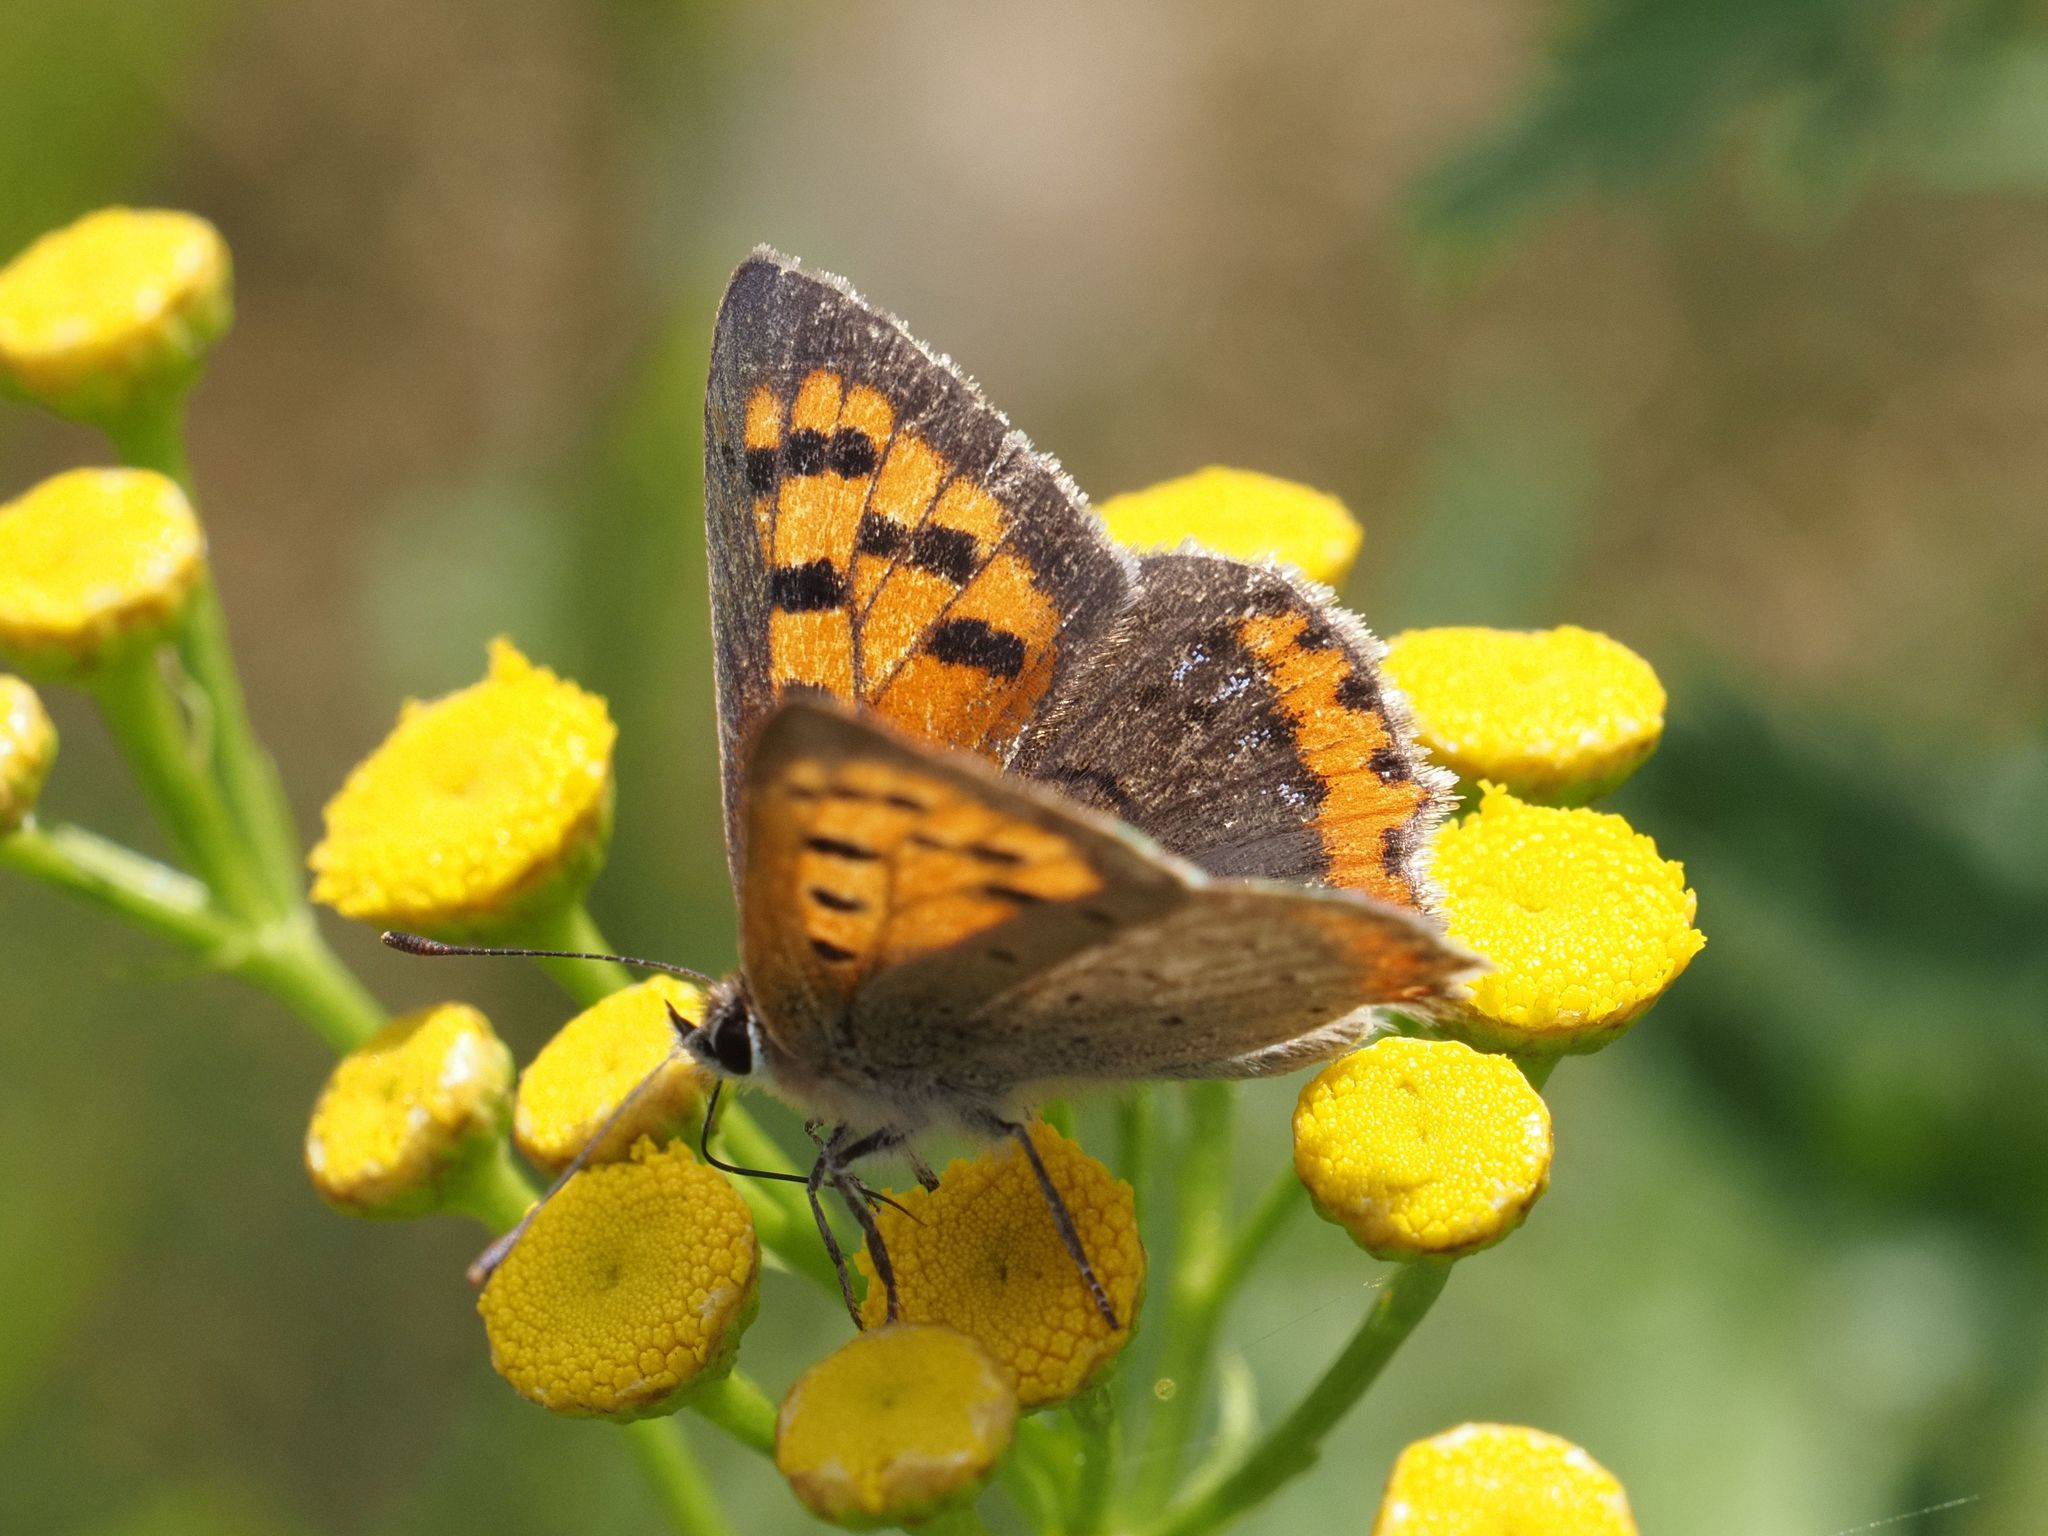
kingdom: Animalia
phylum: Arthropoda
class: Insecta
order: Lepidoptera
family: Lycaenidae
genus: Lycaena
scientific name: Lycaena phlaeas
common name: Small copper
